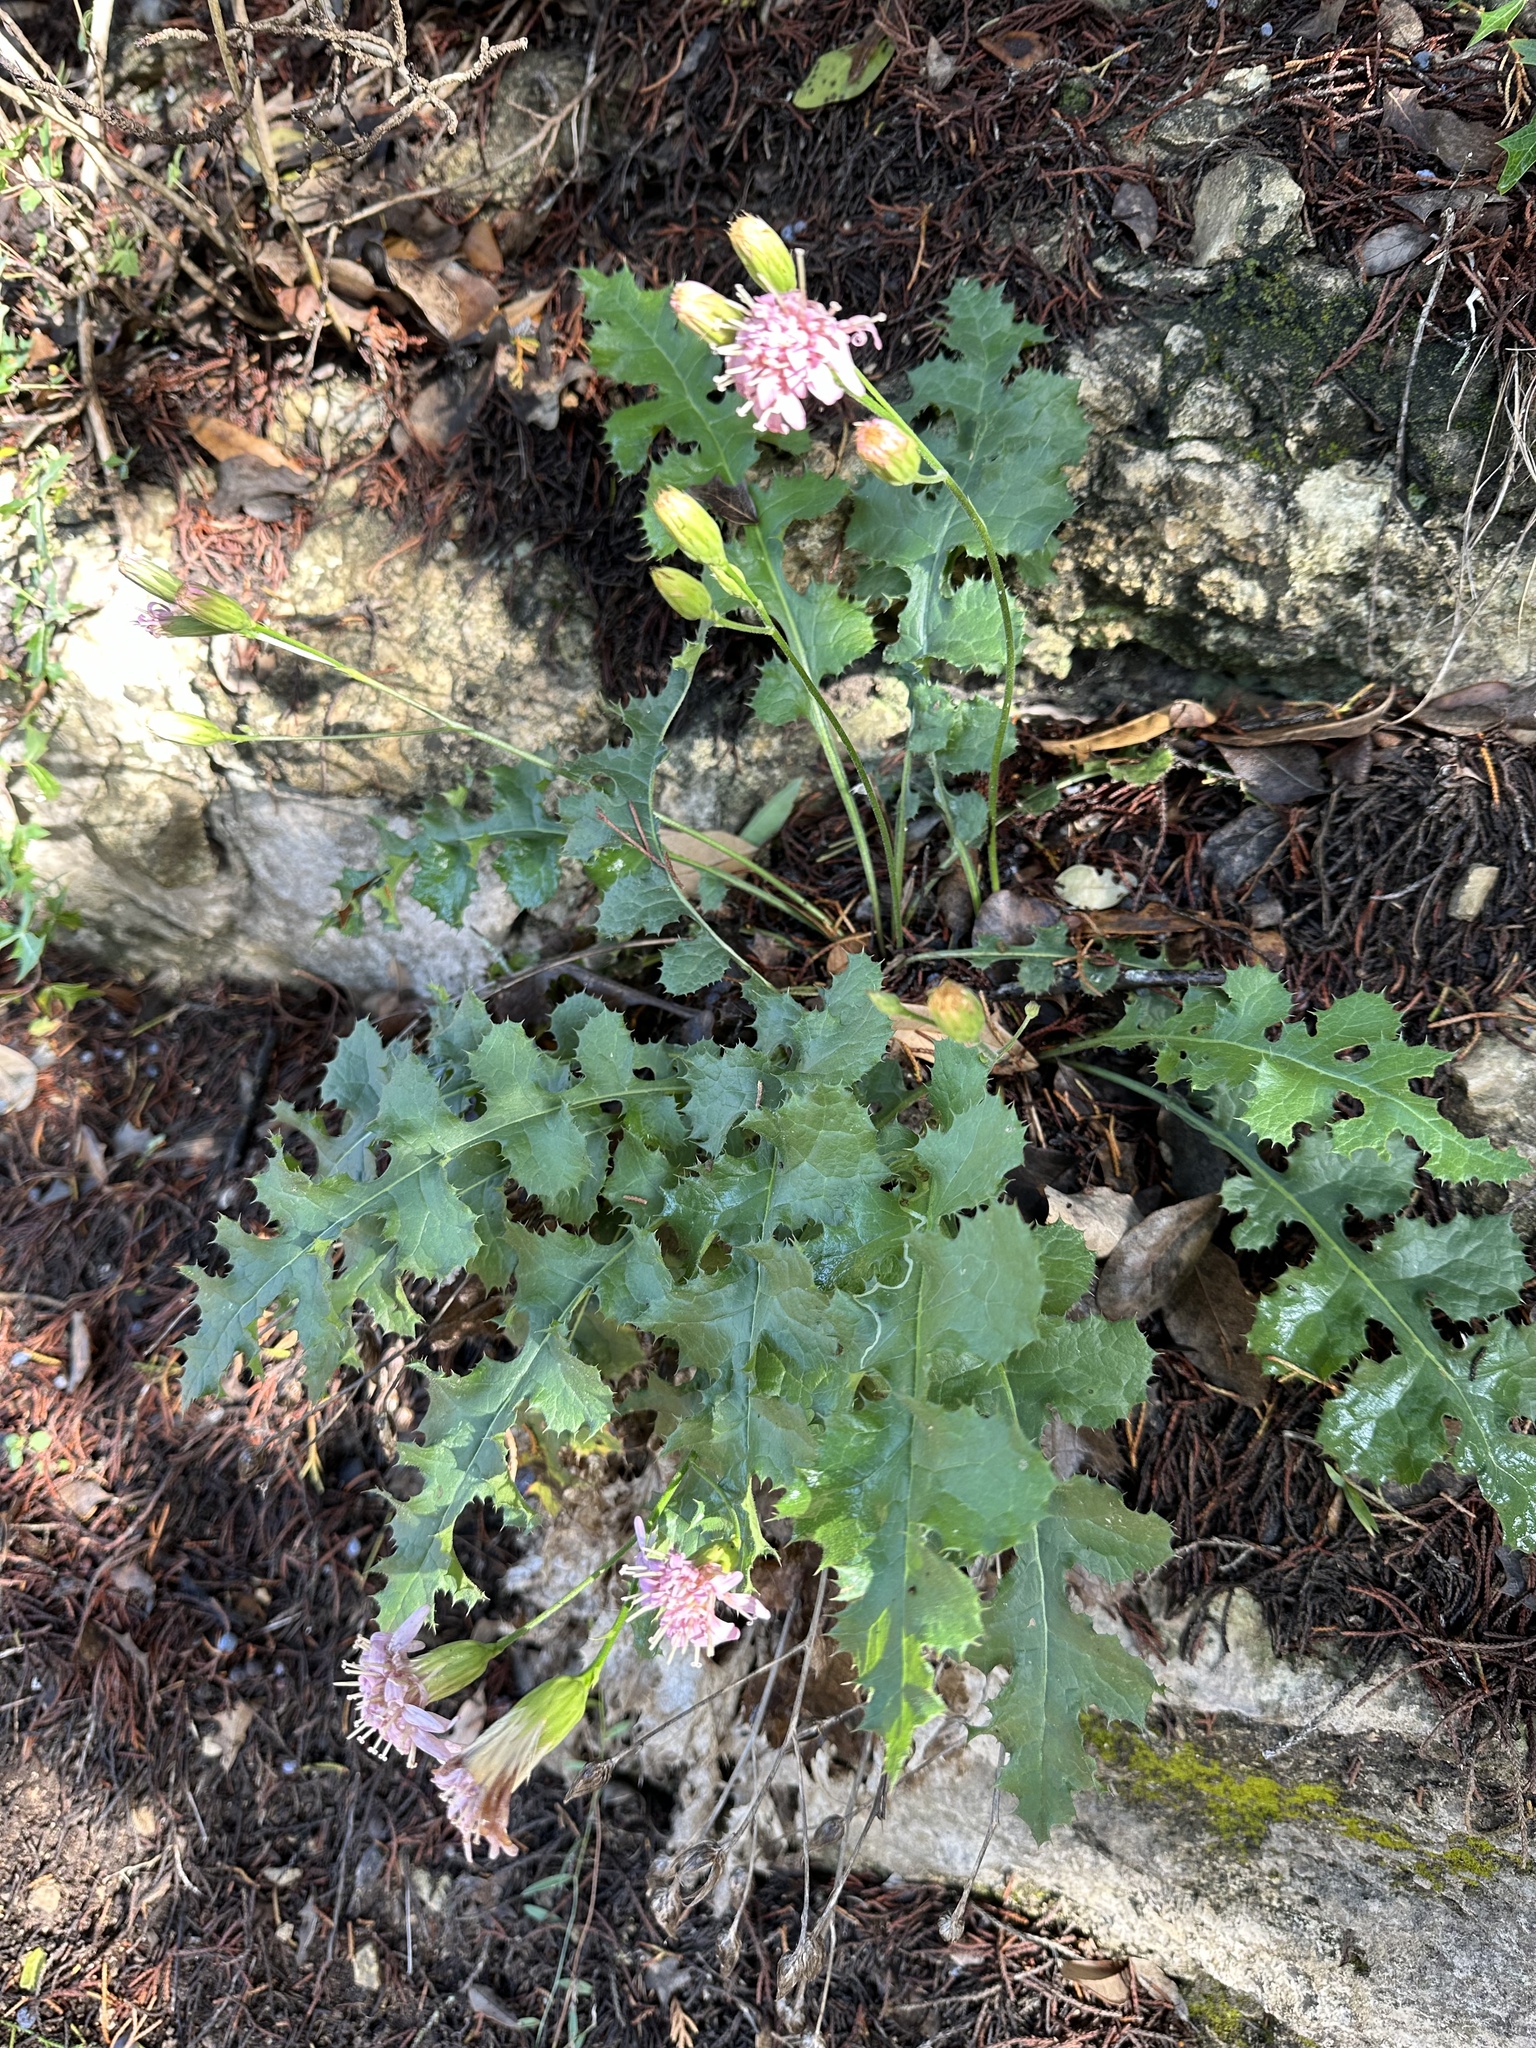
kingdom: Plantae
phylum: Tracheophyta
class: Magnoliopsida
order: Asterales
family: Asteraceae
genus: Acourtia
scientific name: Acourtia runcinata
